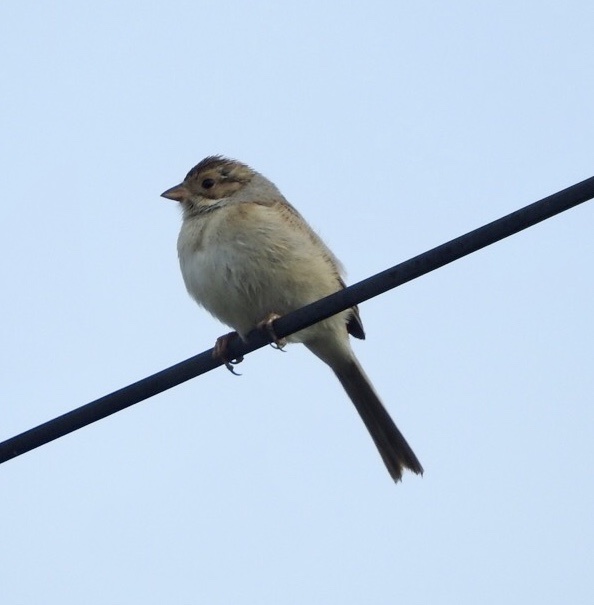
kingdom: Animalia
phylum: Chordata
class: Aves
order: Passeriformes
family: Passerellidae
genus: Spizella
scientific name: Spizella pallida
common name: Clay-colored sparrow
